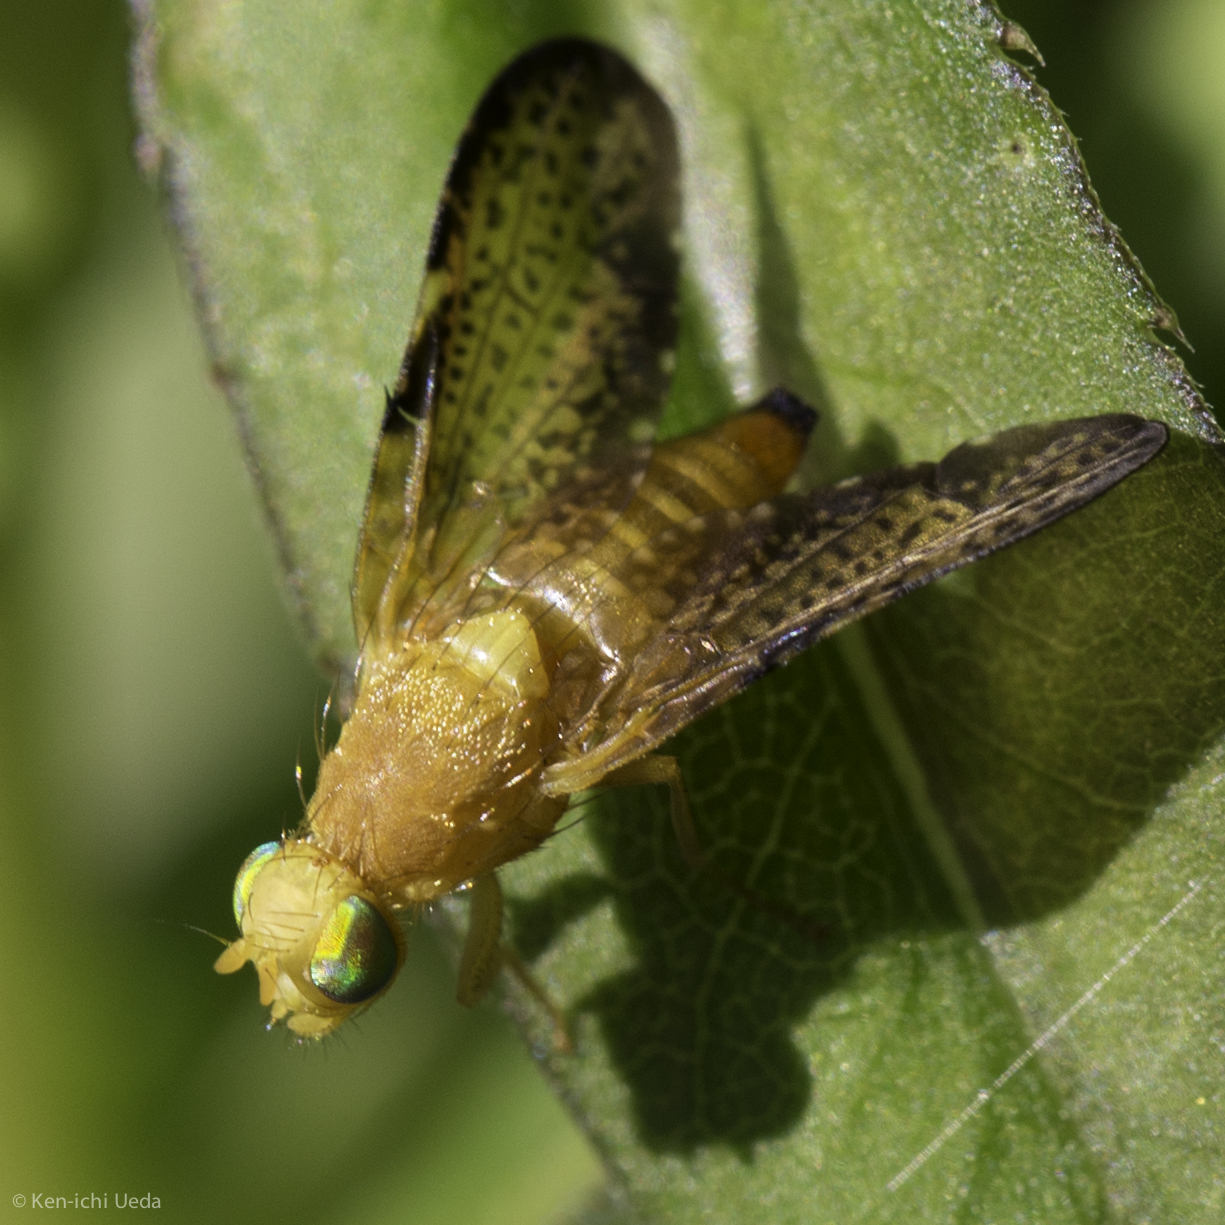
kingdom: Animalia
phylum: Arthropoda
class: Insecta
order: Diptera
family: Tephritidae
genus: Icterica
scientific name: Icterica seriata
